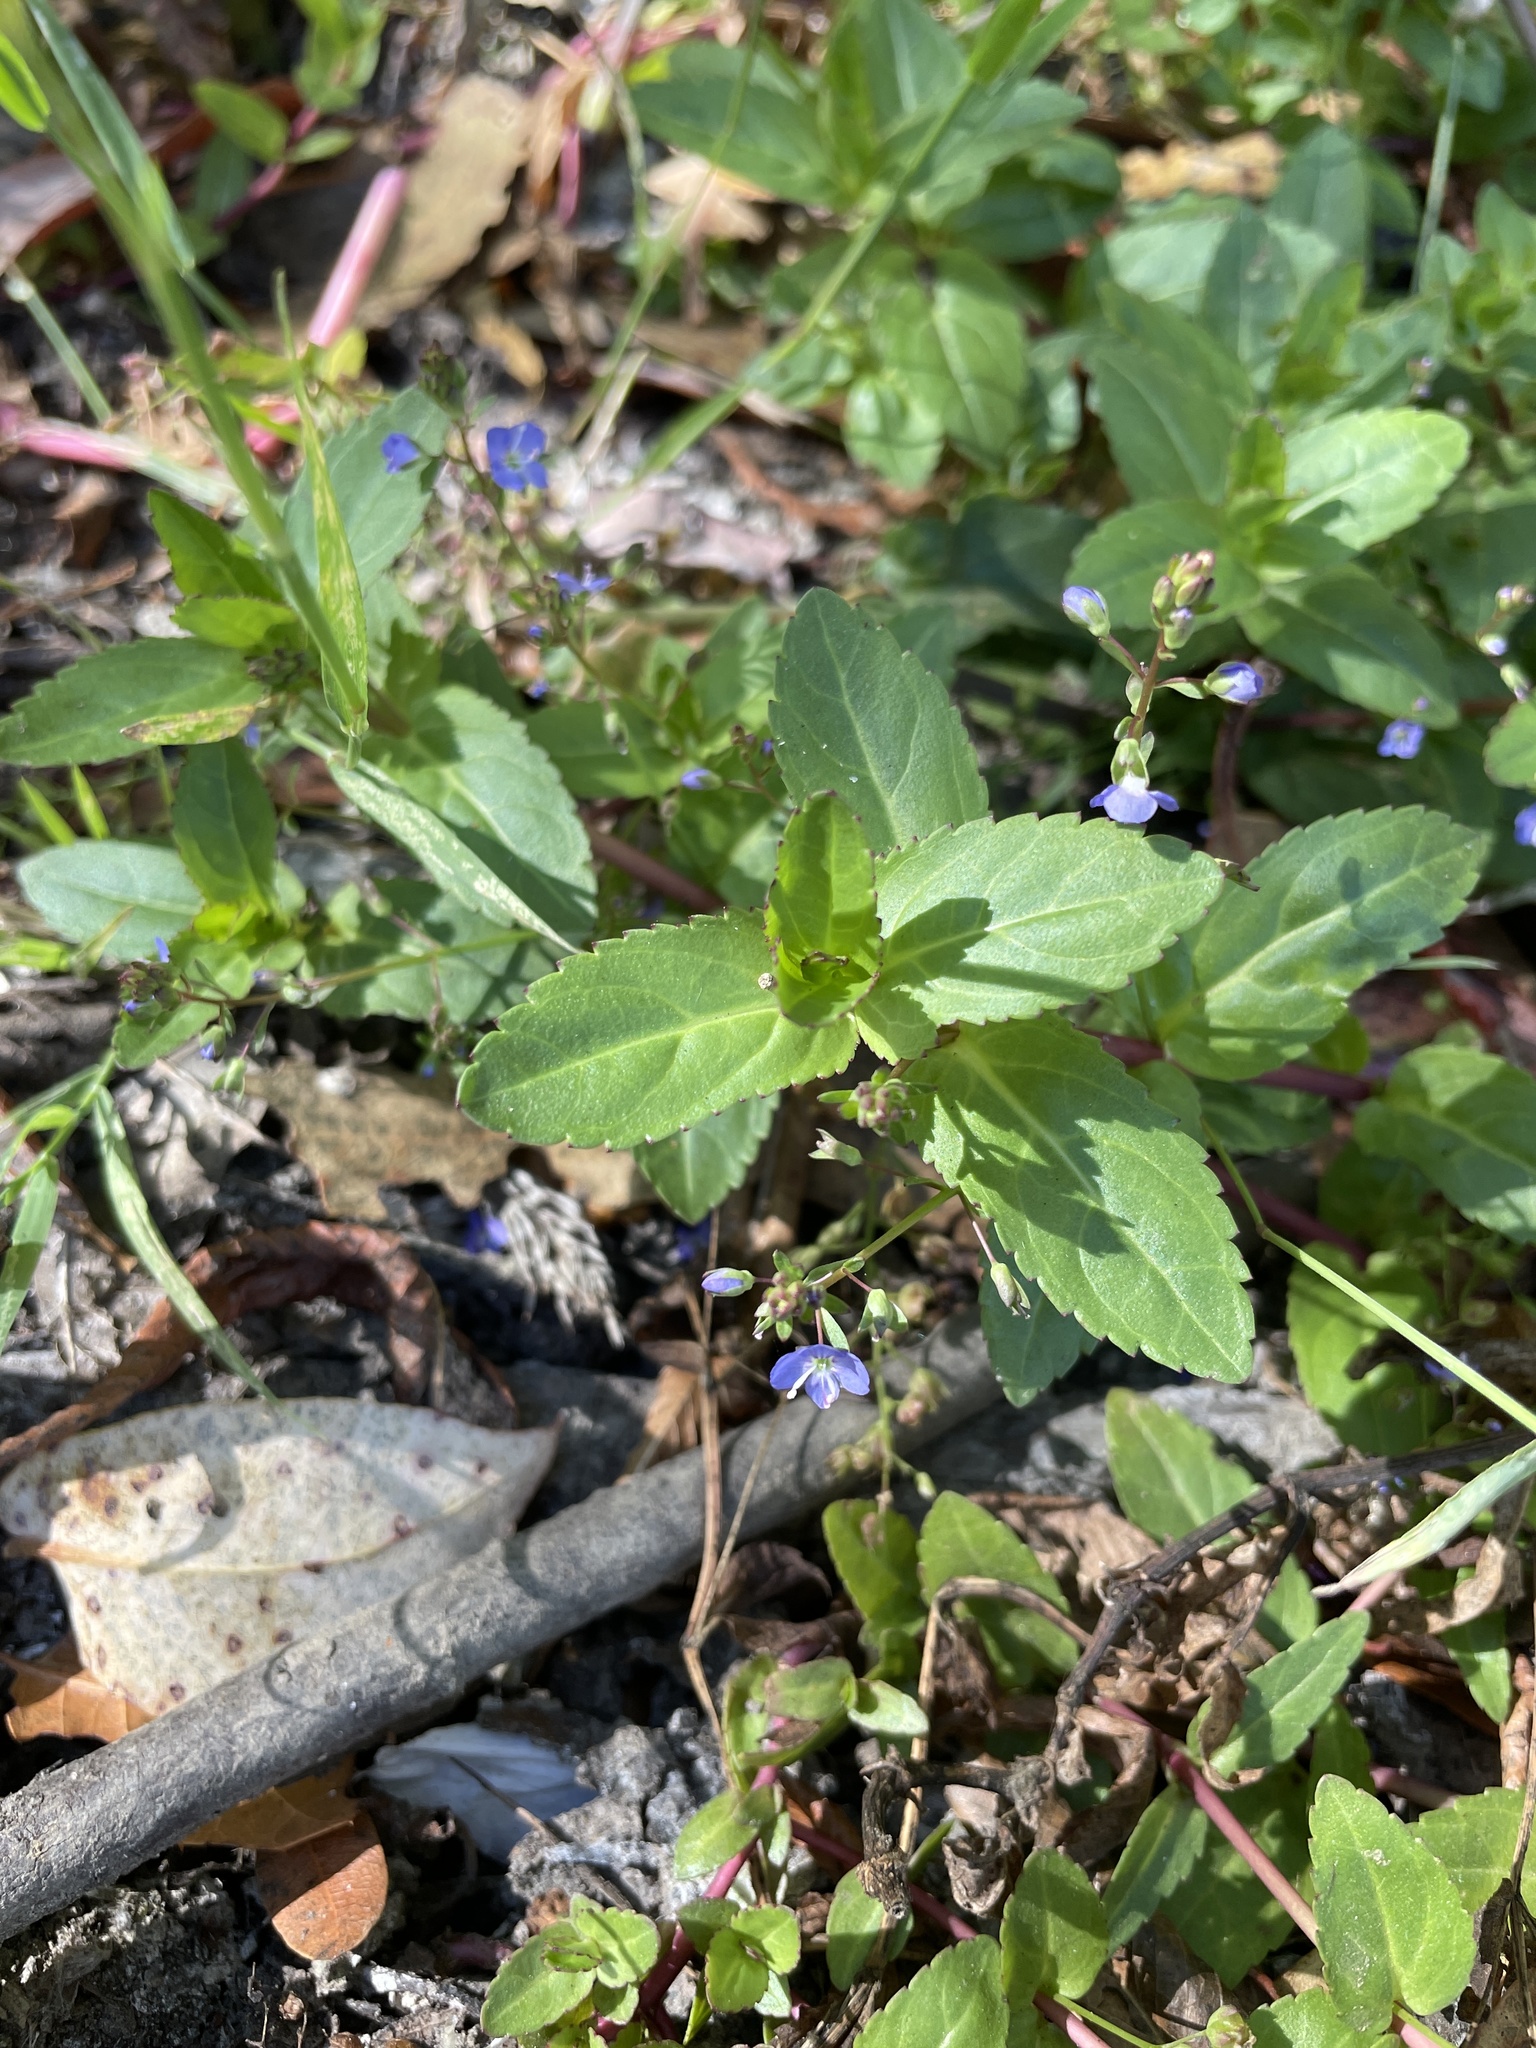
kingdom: Plantae
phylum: Tracheophyta
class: Magnoliopsida
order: Lamiales
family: Plantaginaceae
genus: Veronica
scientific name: Veronica americana
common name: American brooklime
